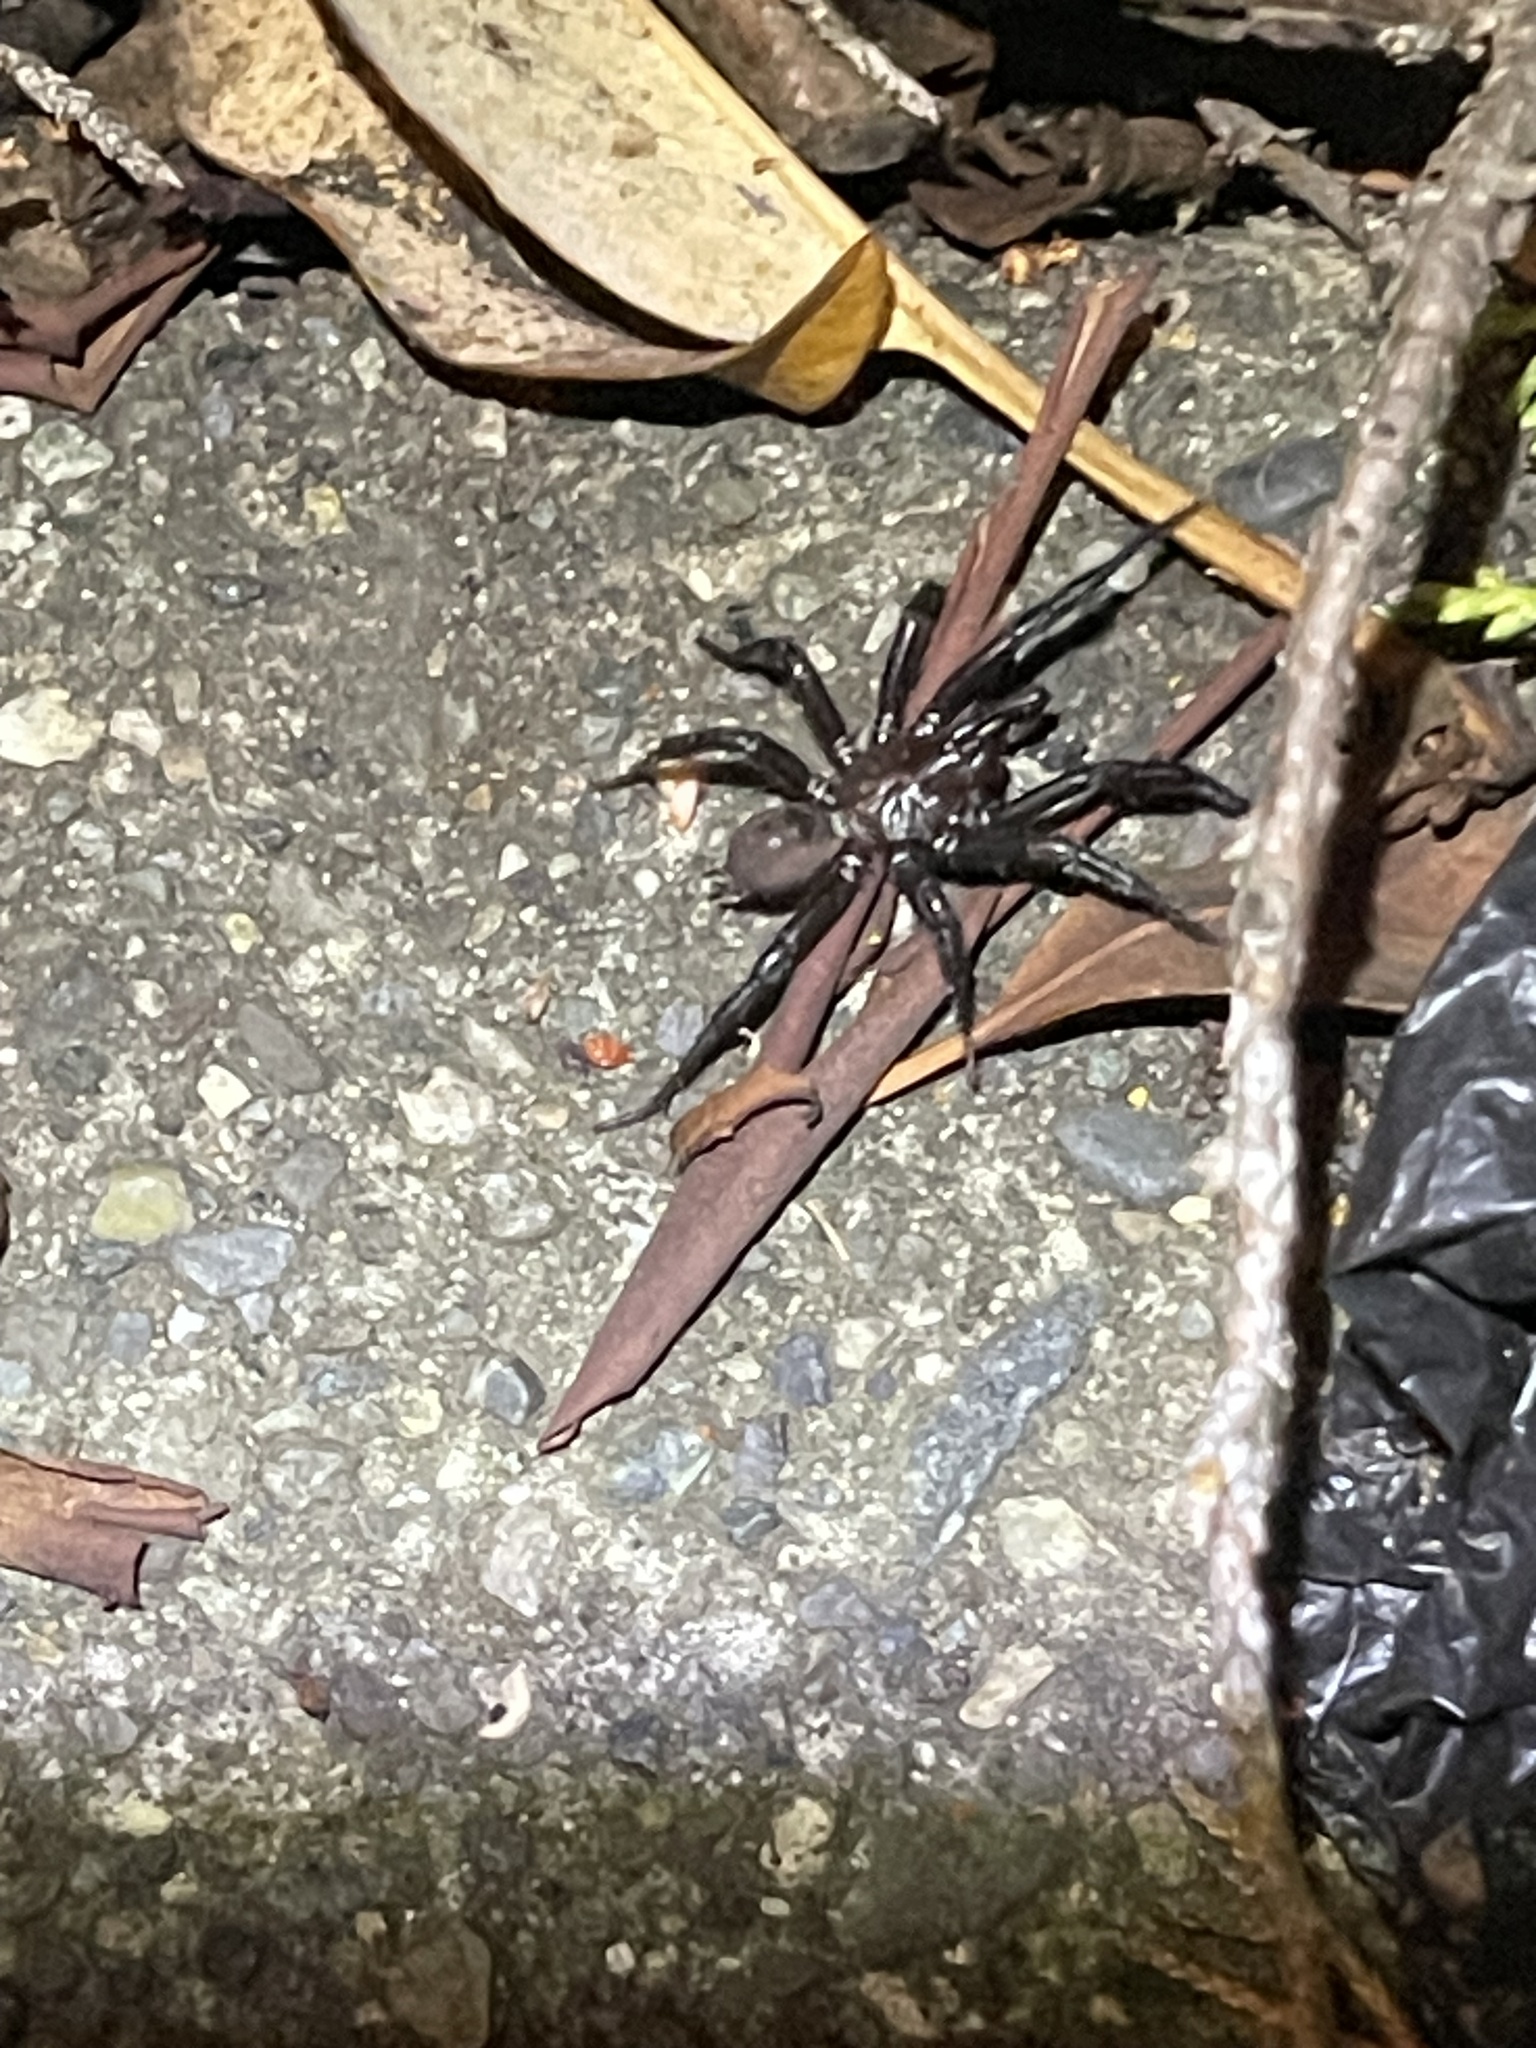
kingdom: Animalia
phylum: Arthropoda
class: Arachnida
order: Araneae
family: Antrodiaetidae
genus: Antrodiaetus
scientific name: Antrodiaetus pacificus
